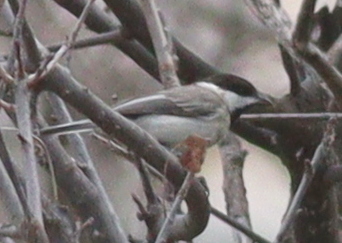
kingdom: Animalia
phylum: Chordata
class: Aves
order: Passeriformes
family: Paridae
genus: Poecile
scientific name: Poecile lugubris
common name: Sombre tit
